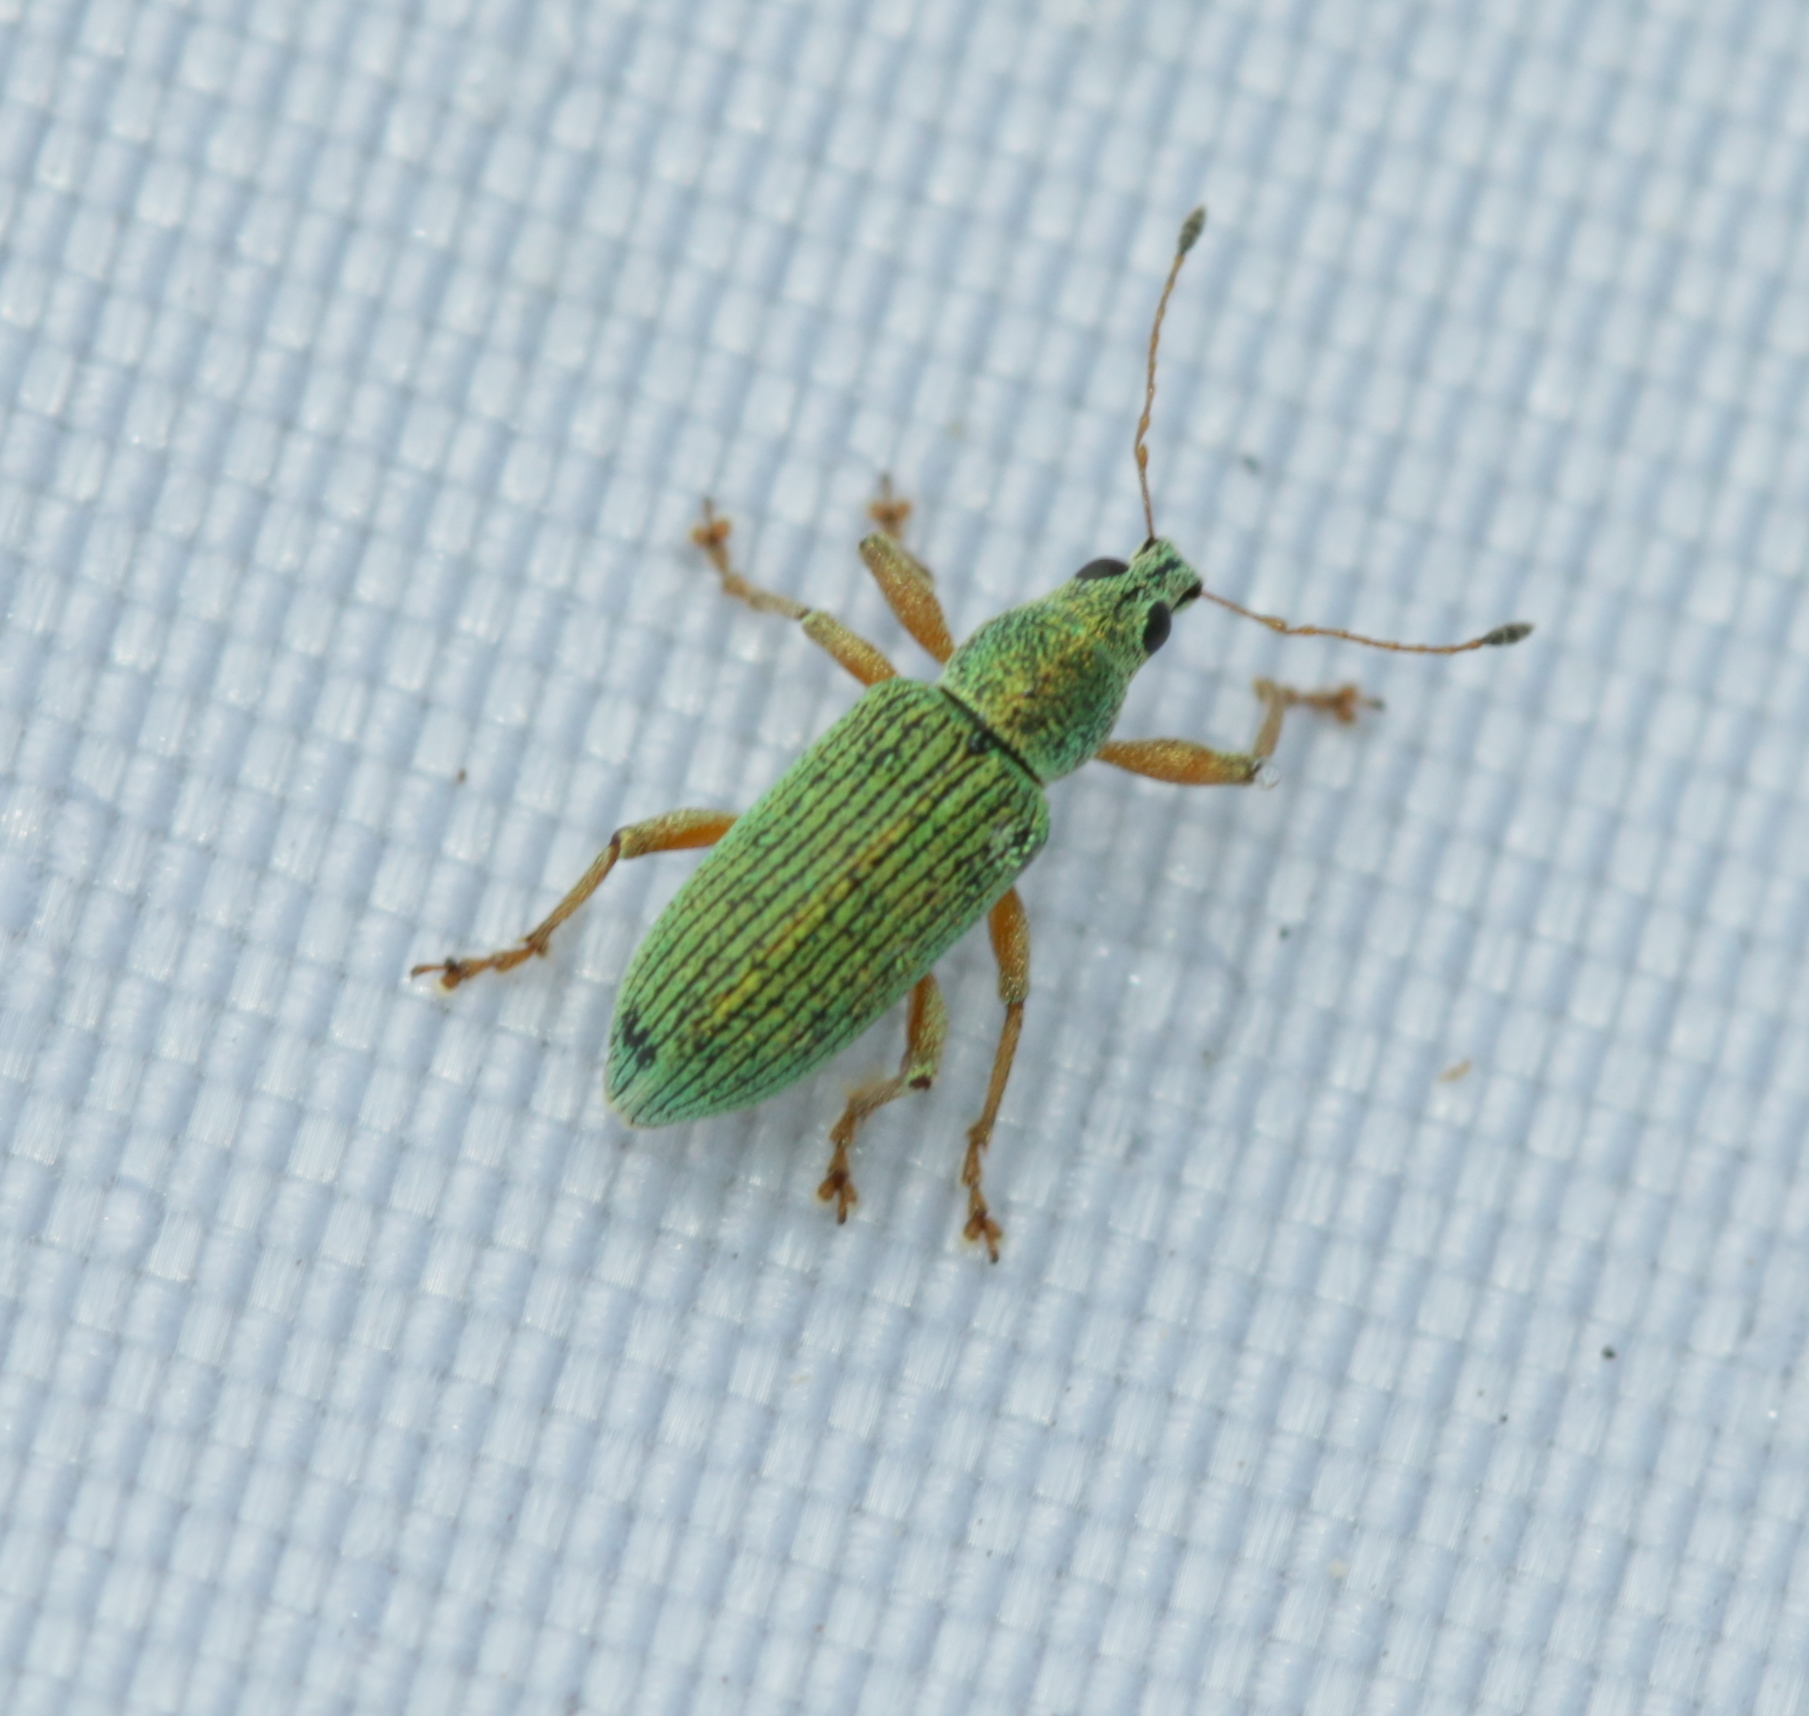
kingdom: Animalia
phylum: Arthropoda
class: Insecta
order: Coleoptera
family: Curculionidae
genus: Polydrusus
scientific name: Polydrusus formosus
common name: Weevil
